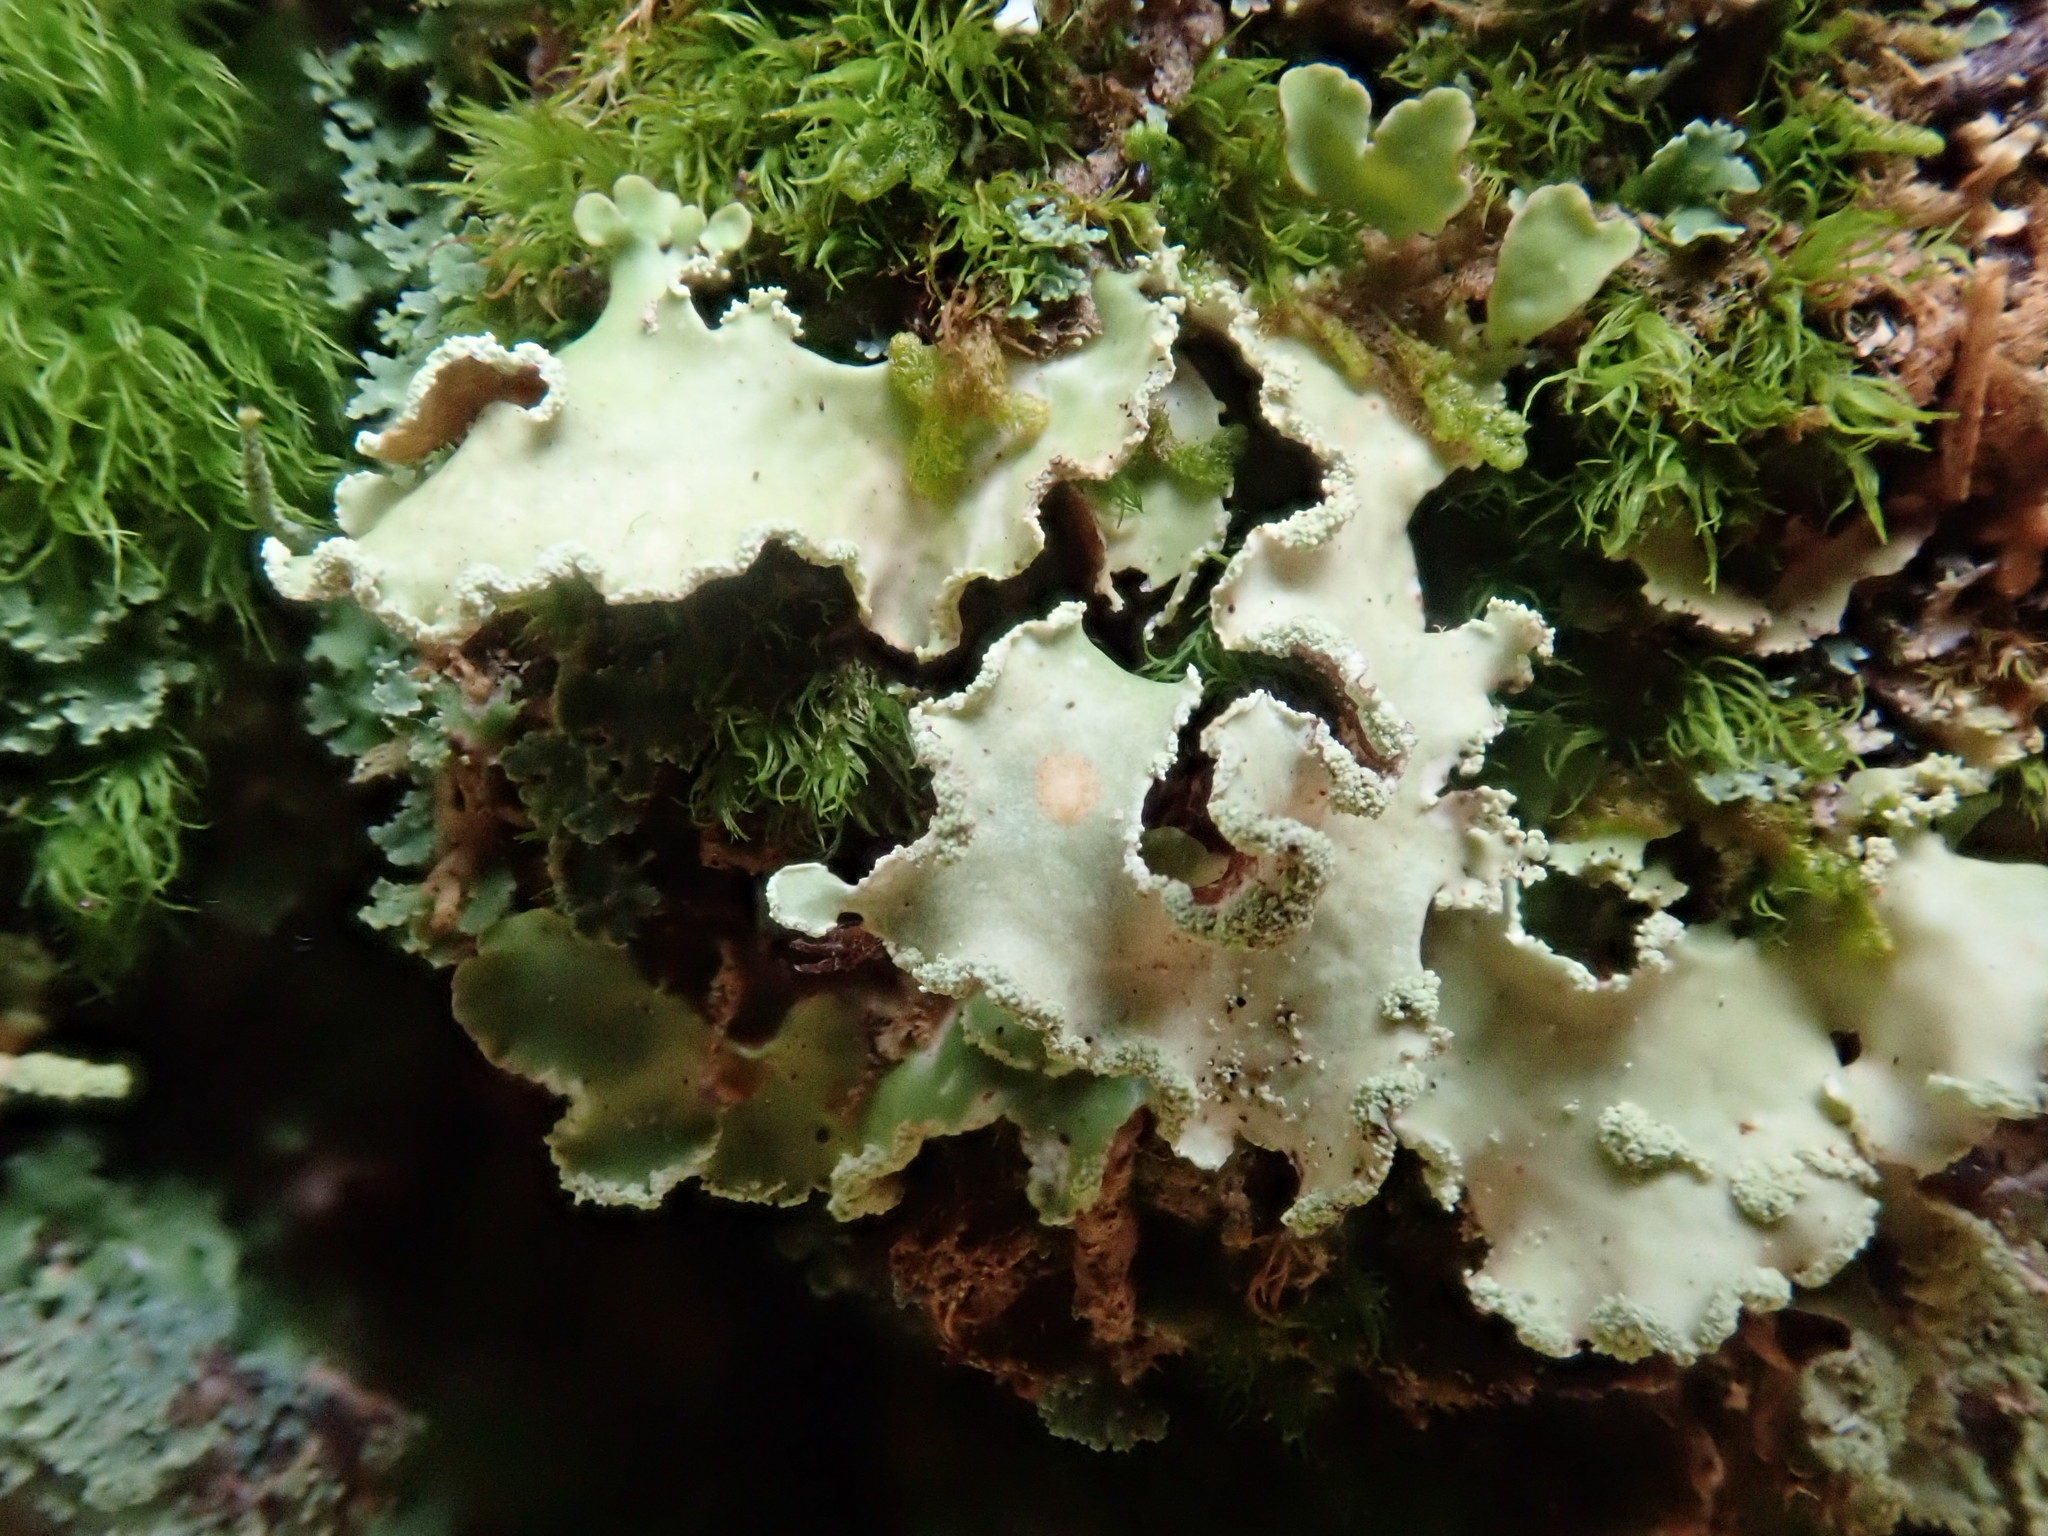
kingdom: Fungi
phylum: Ascomycota
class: Lecanoromycetes
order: Lecanorales
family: Parmeliaceae
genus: Usnocetraria
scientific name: Usnocetraria oakesiana
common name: Yellow ribbon lichen
